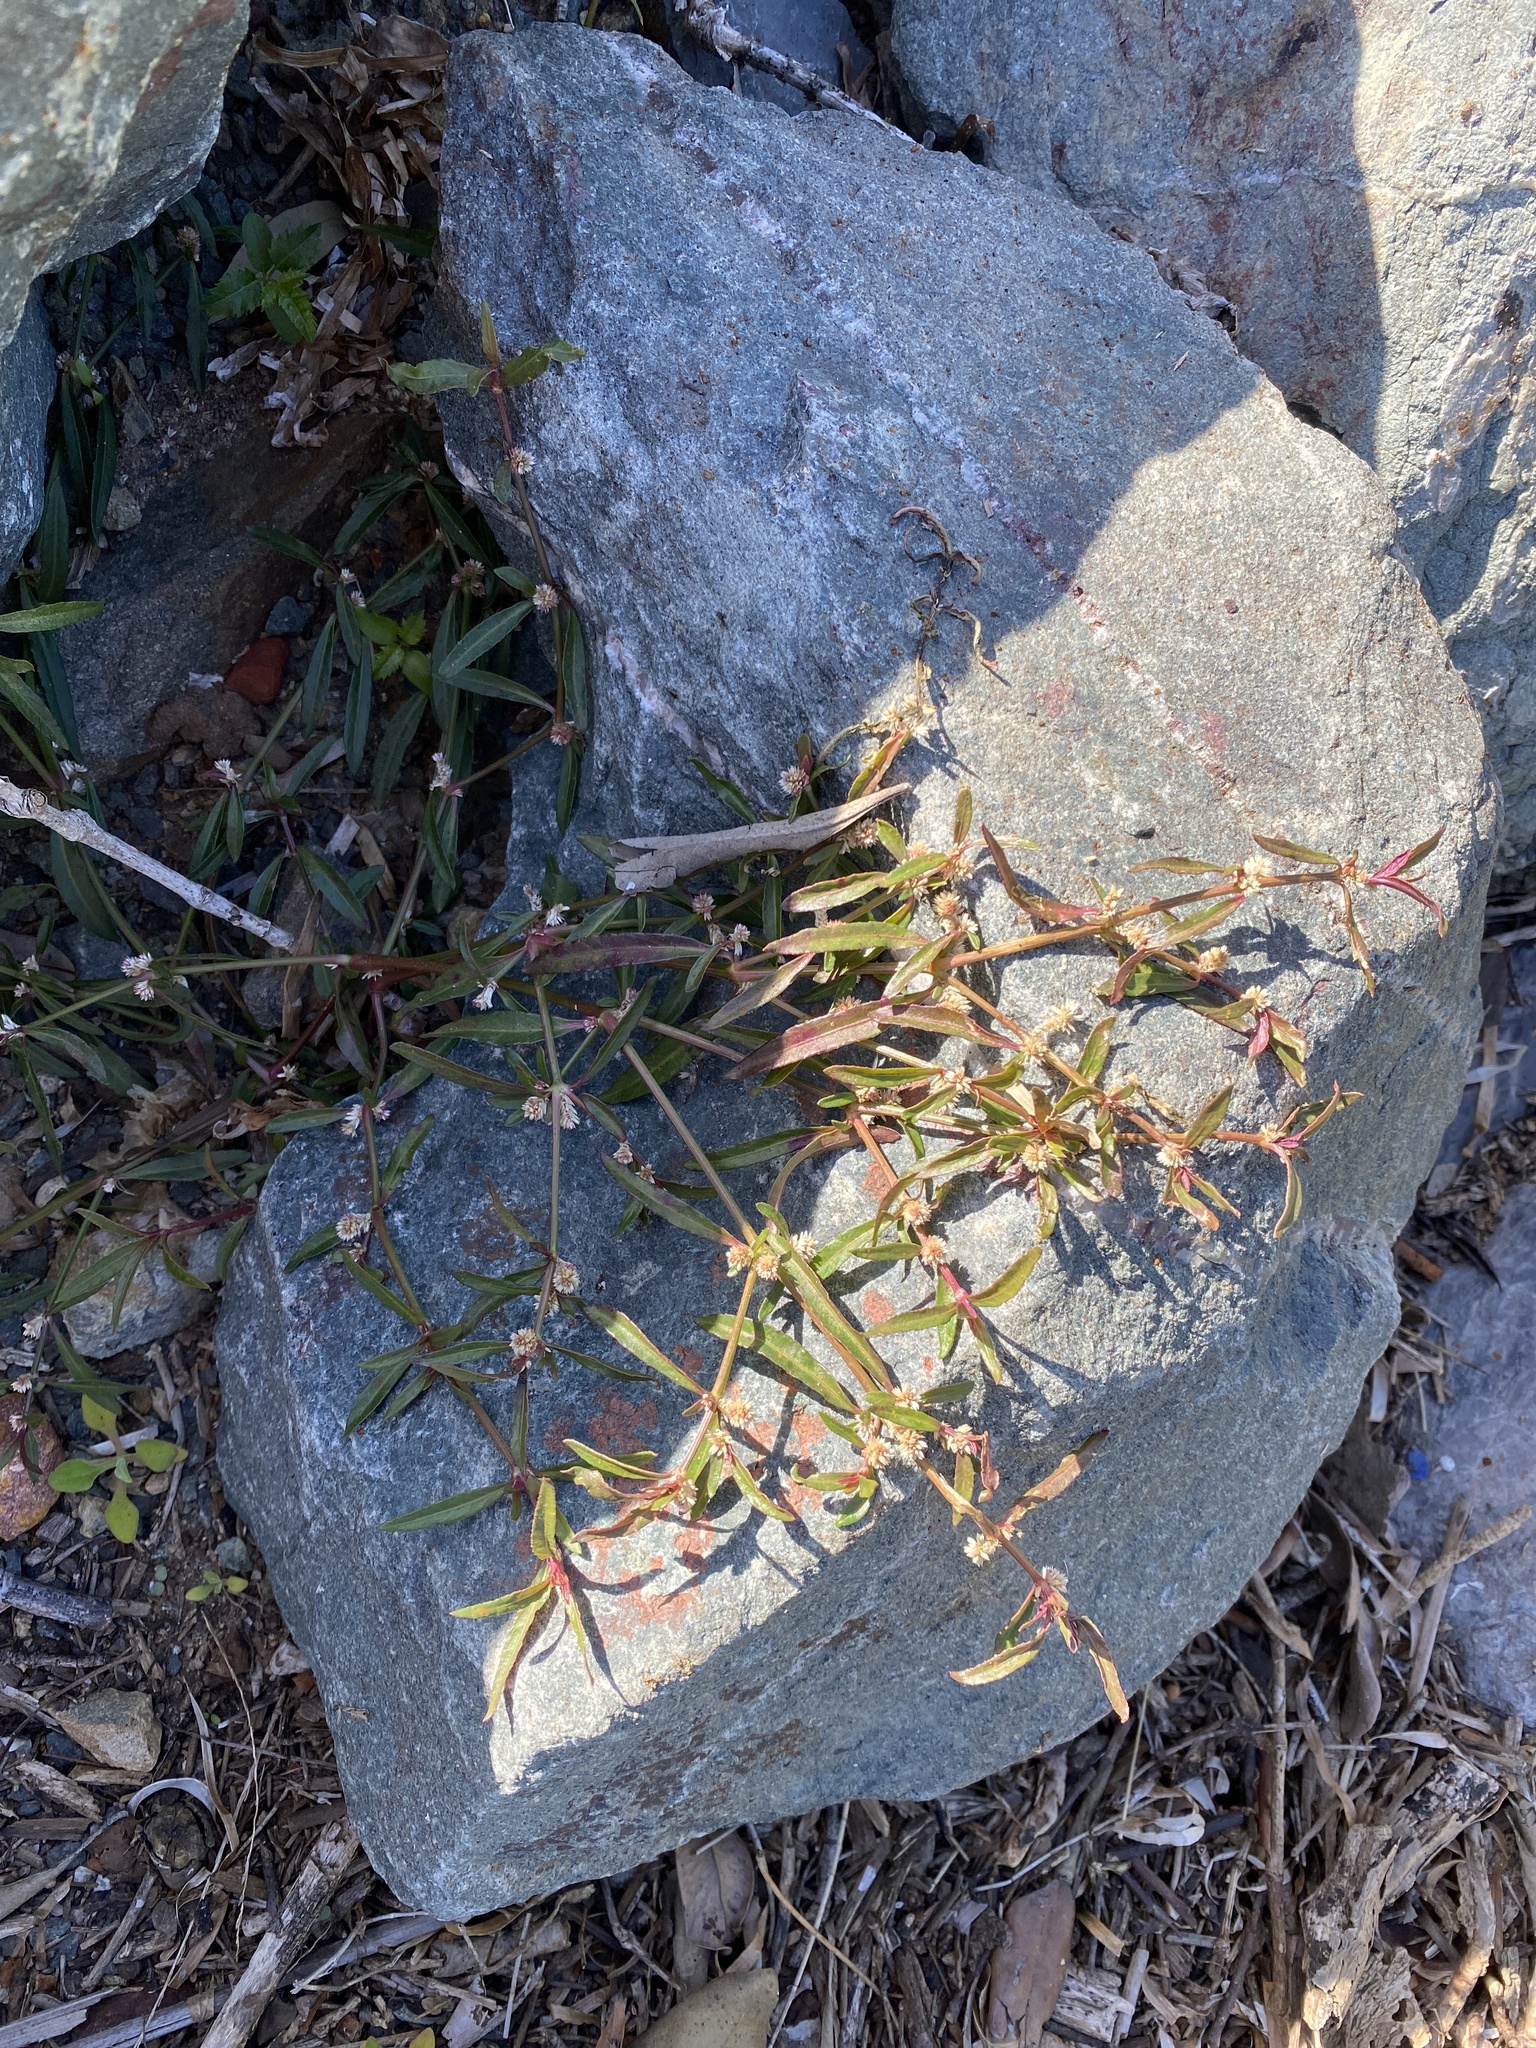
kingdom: Plantae
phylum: Tracheophyta
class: Magnoliopsida
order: Caryophyllales
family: Amaranthaceae
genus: Alternanthera
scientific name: Alternanthera denticulata
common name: Lesser joyweed
